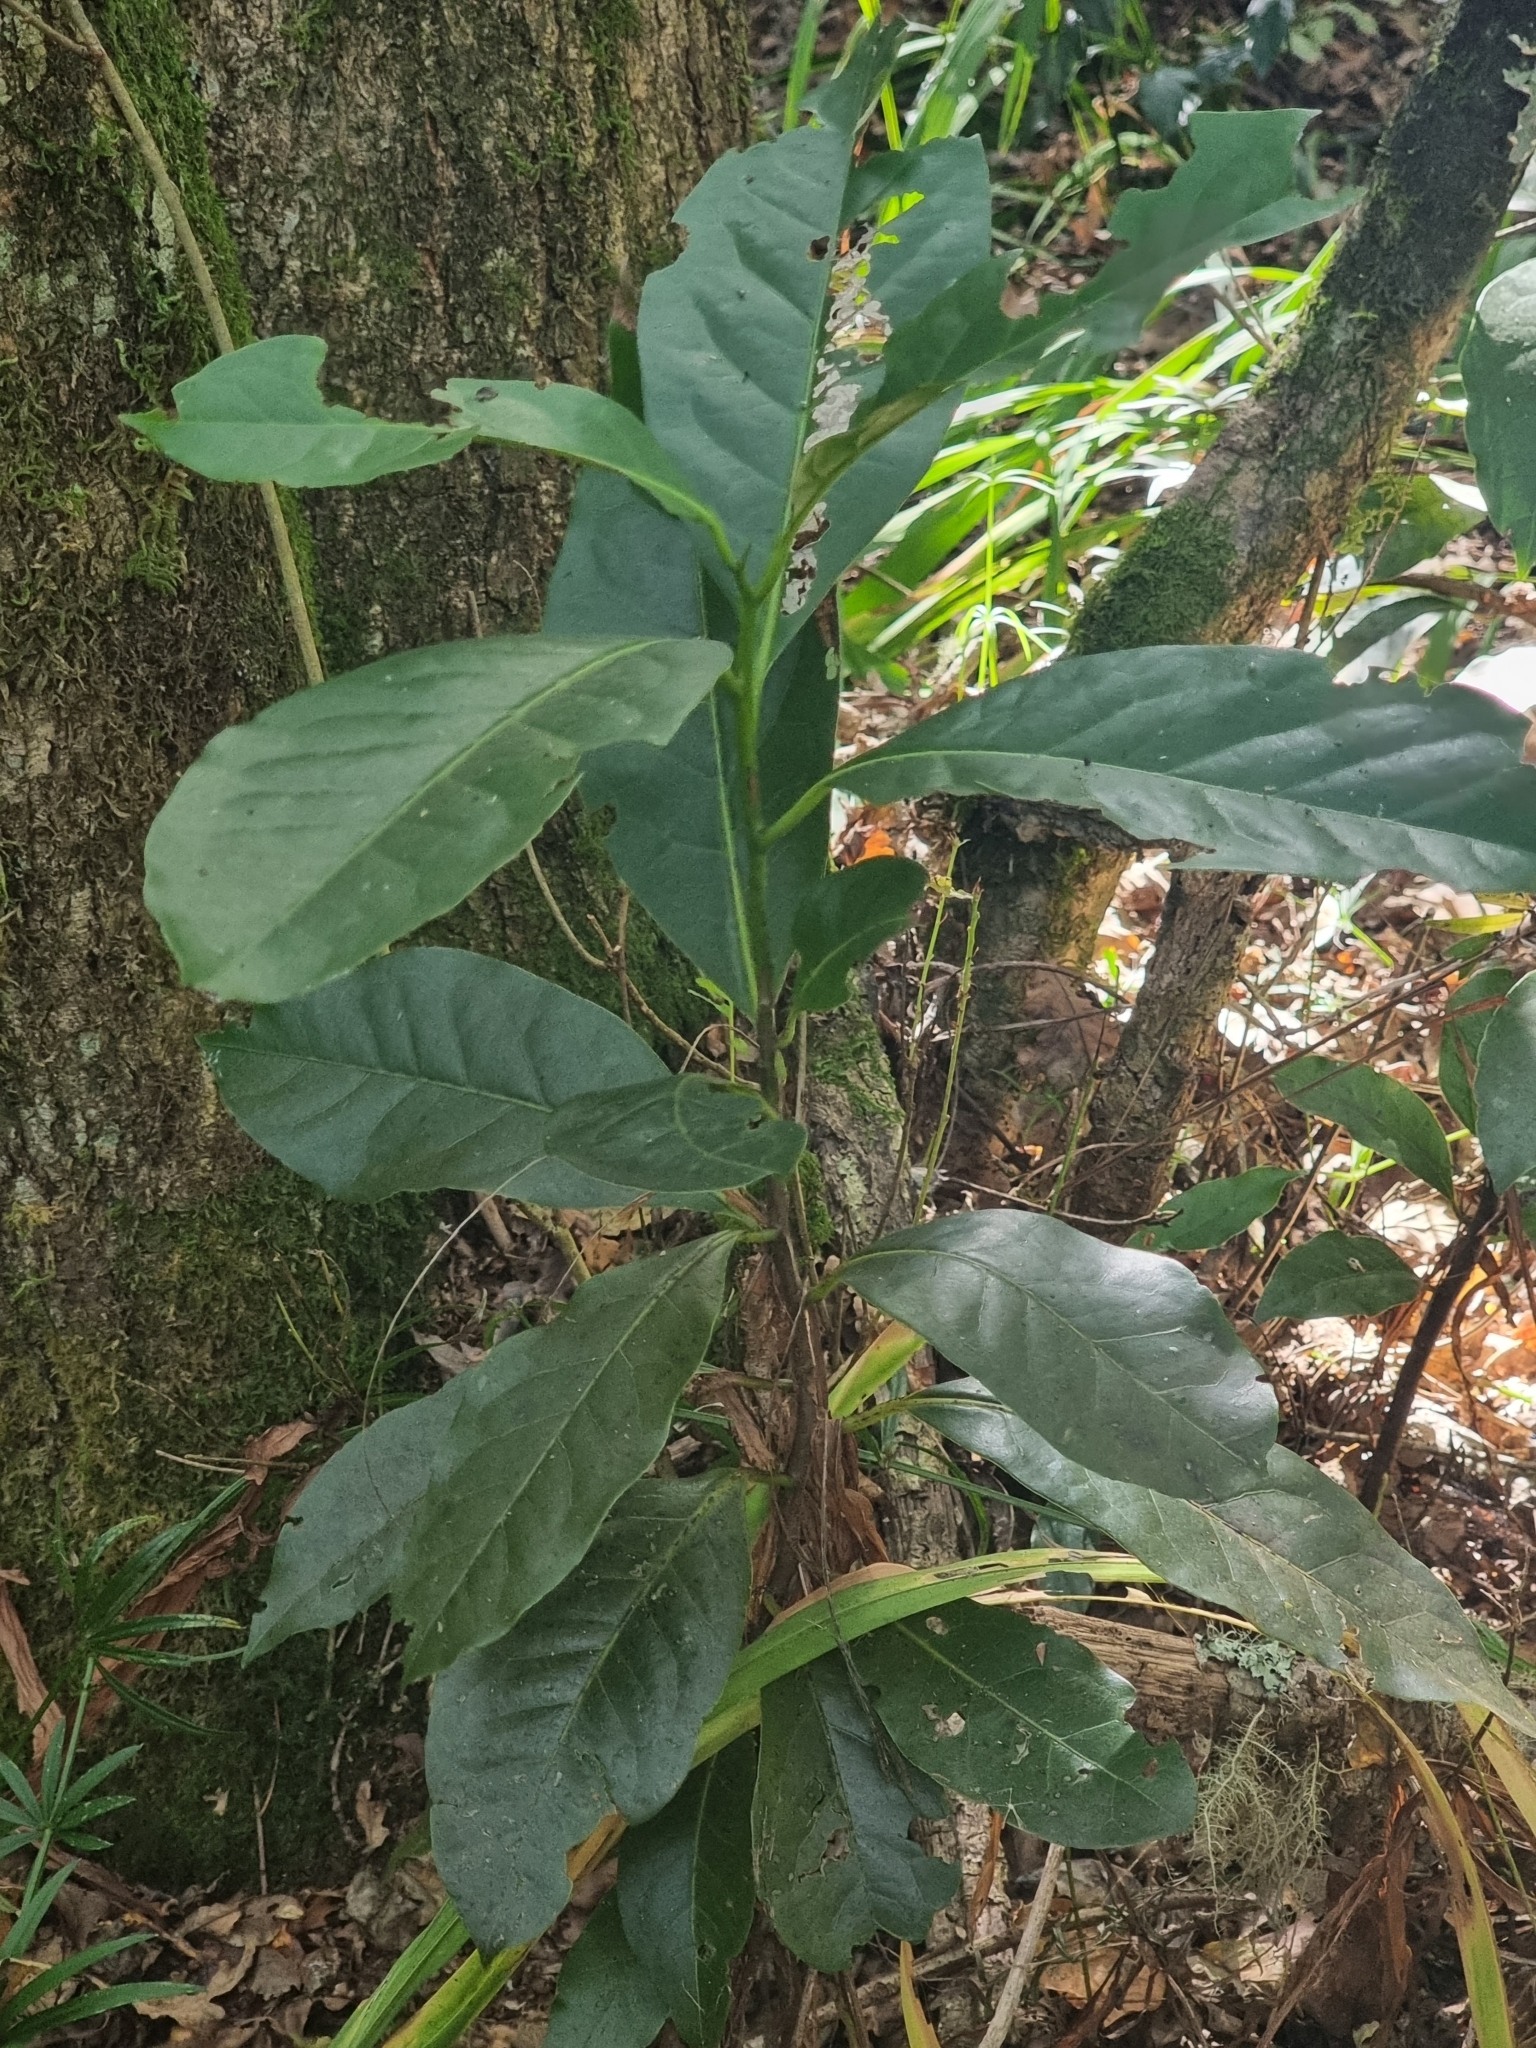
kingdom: Plantae
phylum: Tracheophyta
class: Magnoliopsida
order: Laurales
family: Lauraceae
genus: Mespilodaphne
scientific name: Mespilodaphne foetens
